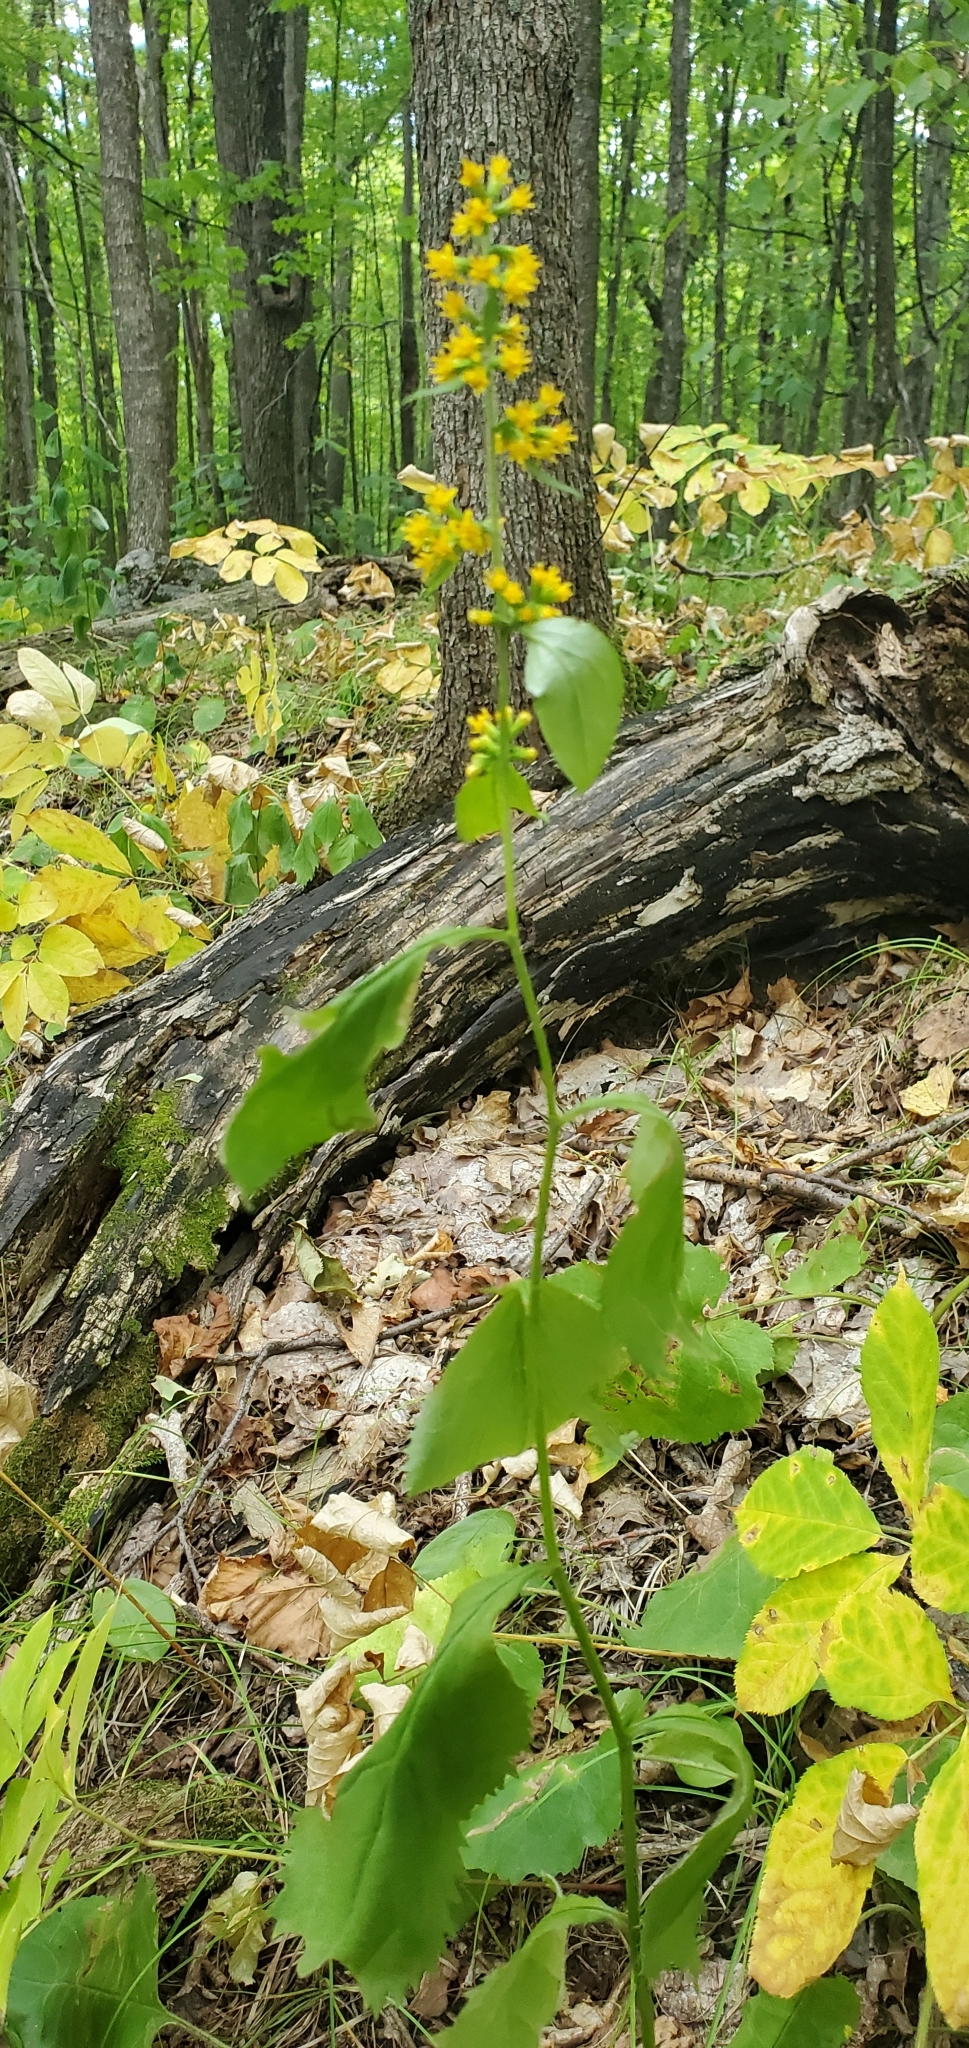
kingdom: Plantae
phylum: Tracheophyta
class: Magnoliopsida
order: Asterales
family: Asteraceae
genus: Solidago
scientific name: Solidago flexicaulis
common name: Zig-zag goldenrod
